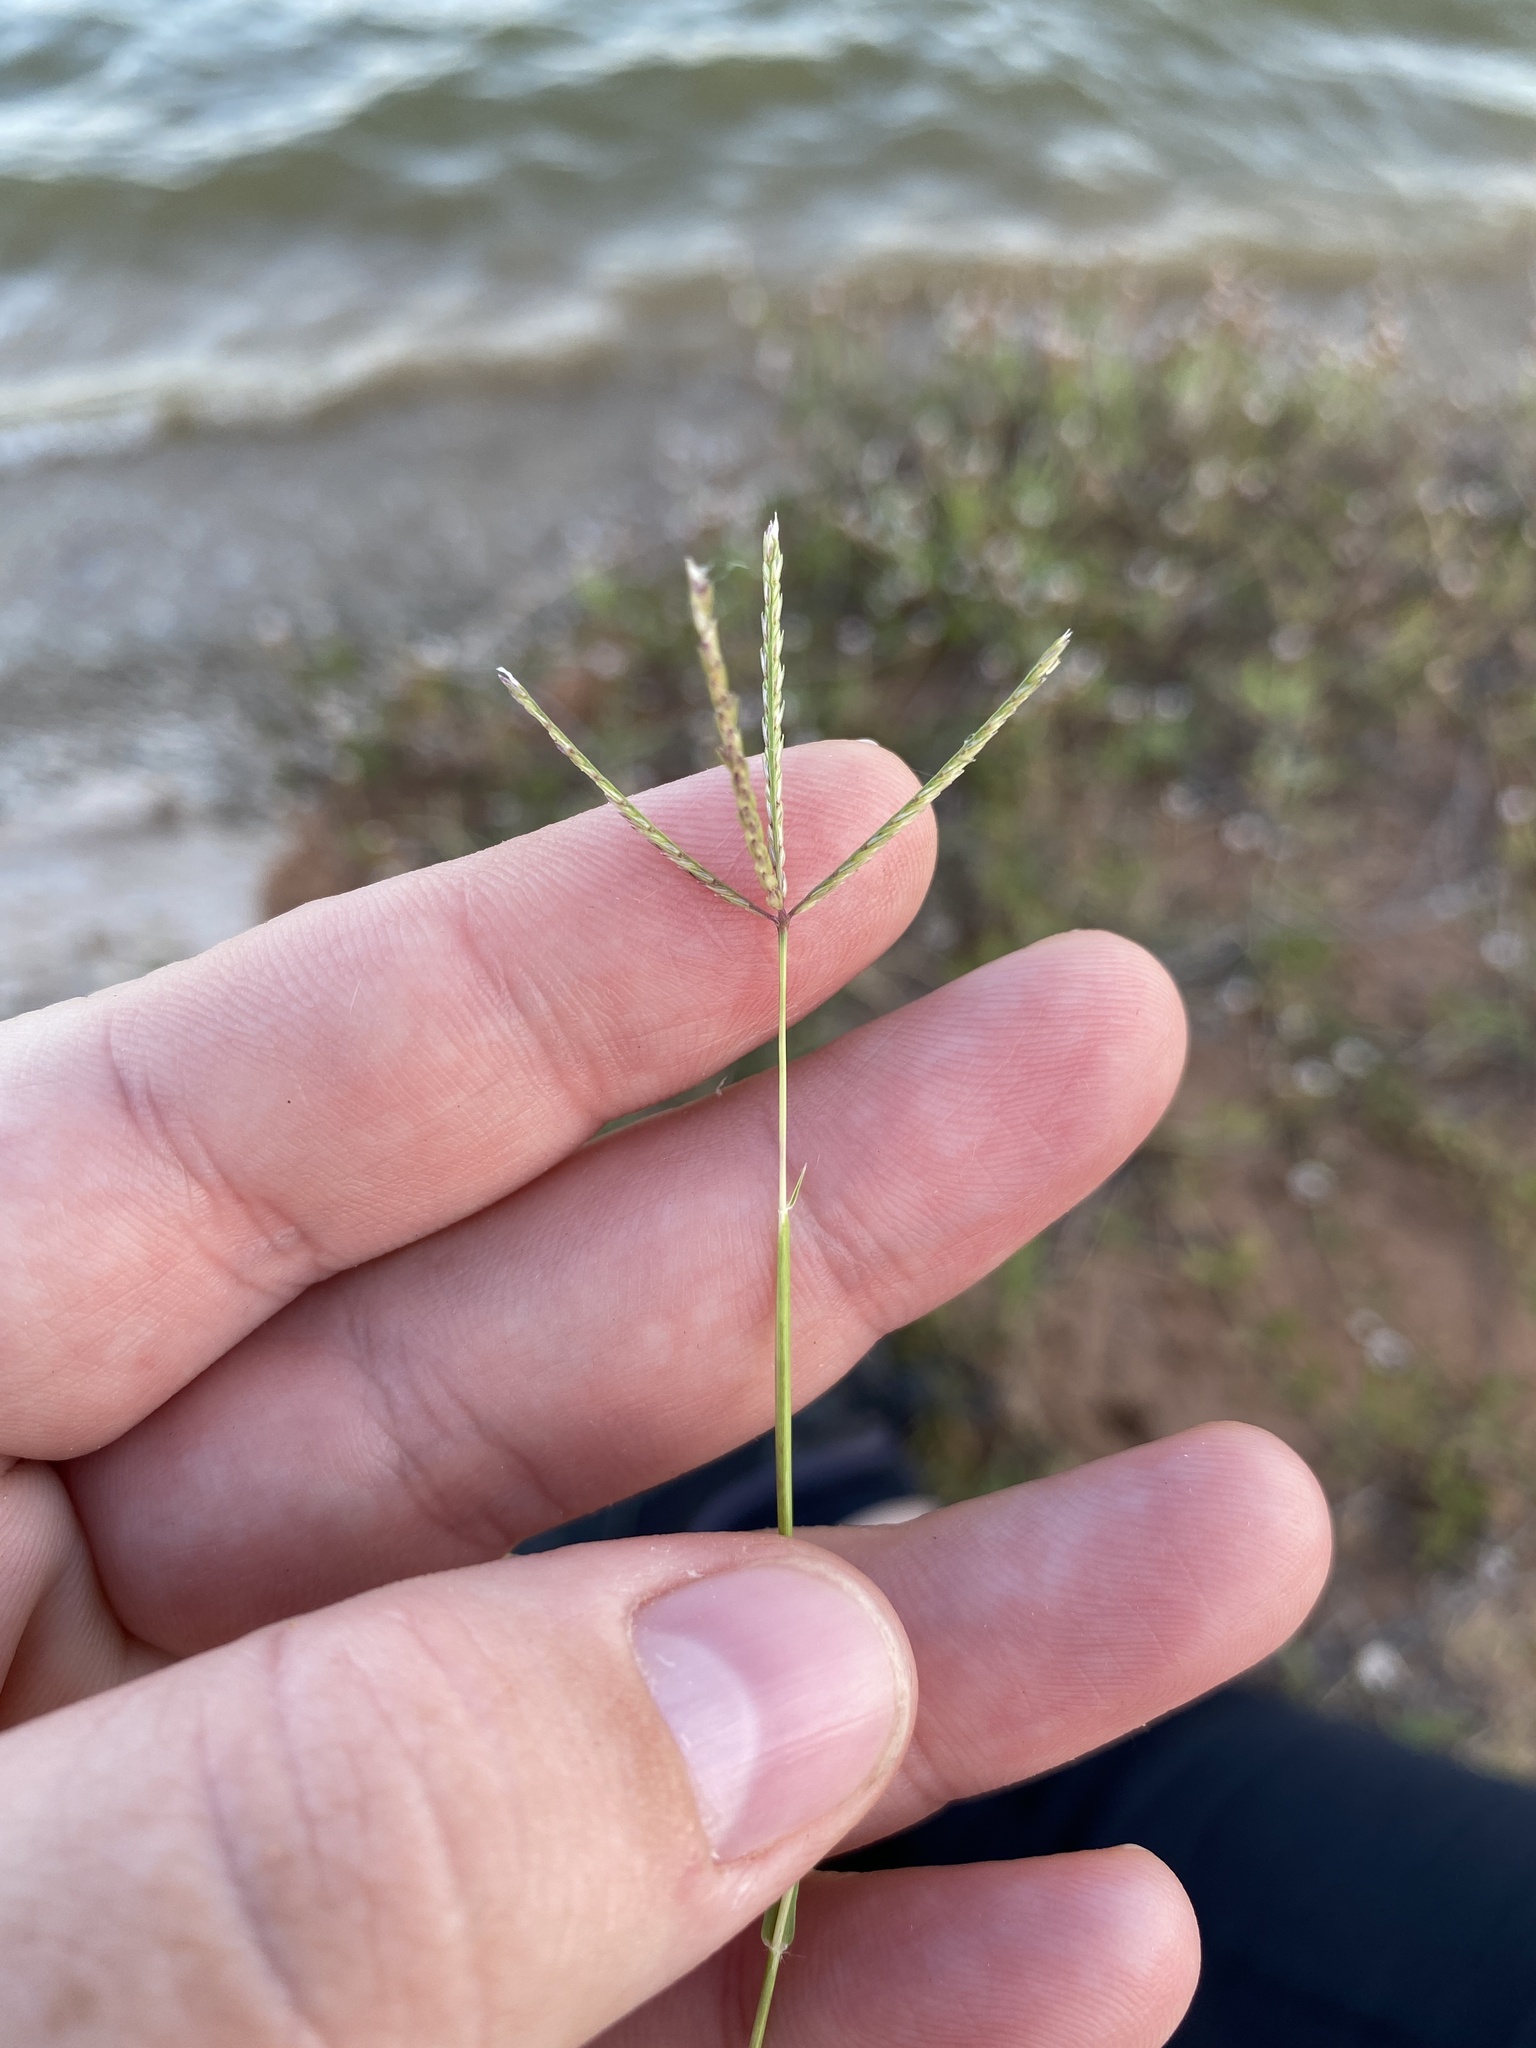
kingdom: Plantae
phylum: Tracheophyta
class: Liliopsida
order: Poales
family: Poaceae
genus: Cynodon
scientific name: Cynodon dactylon
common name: Bermuda grass
